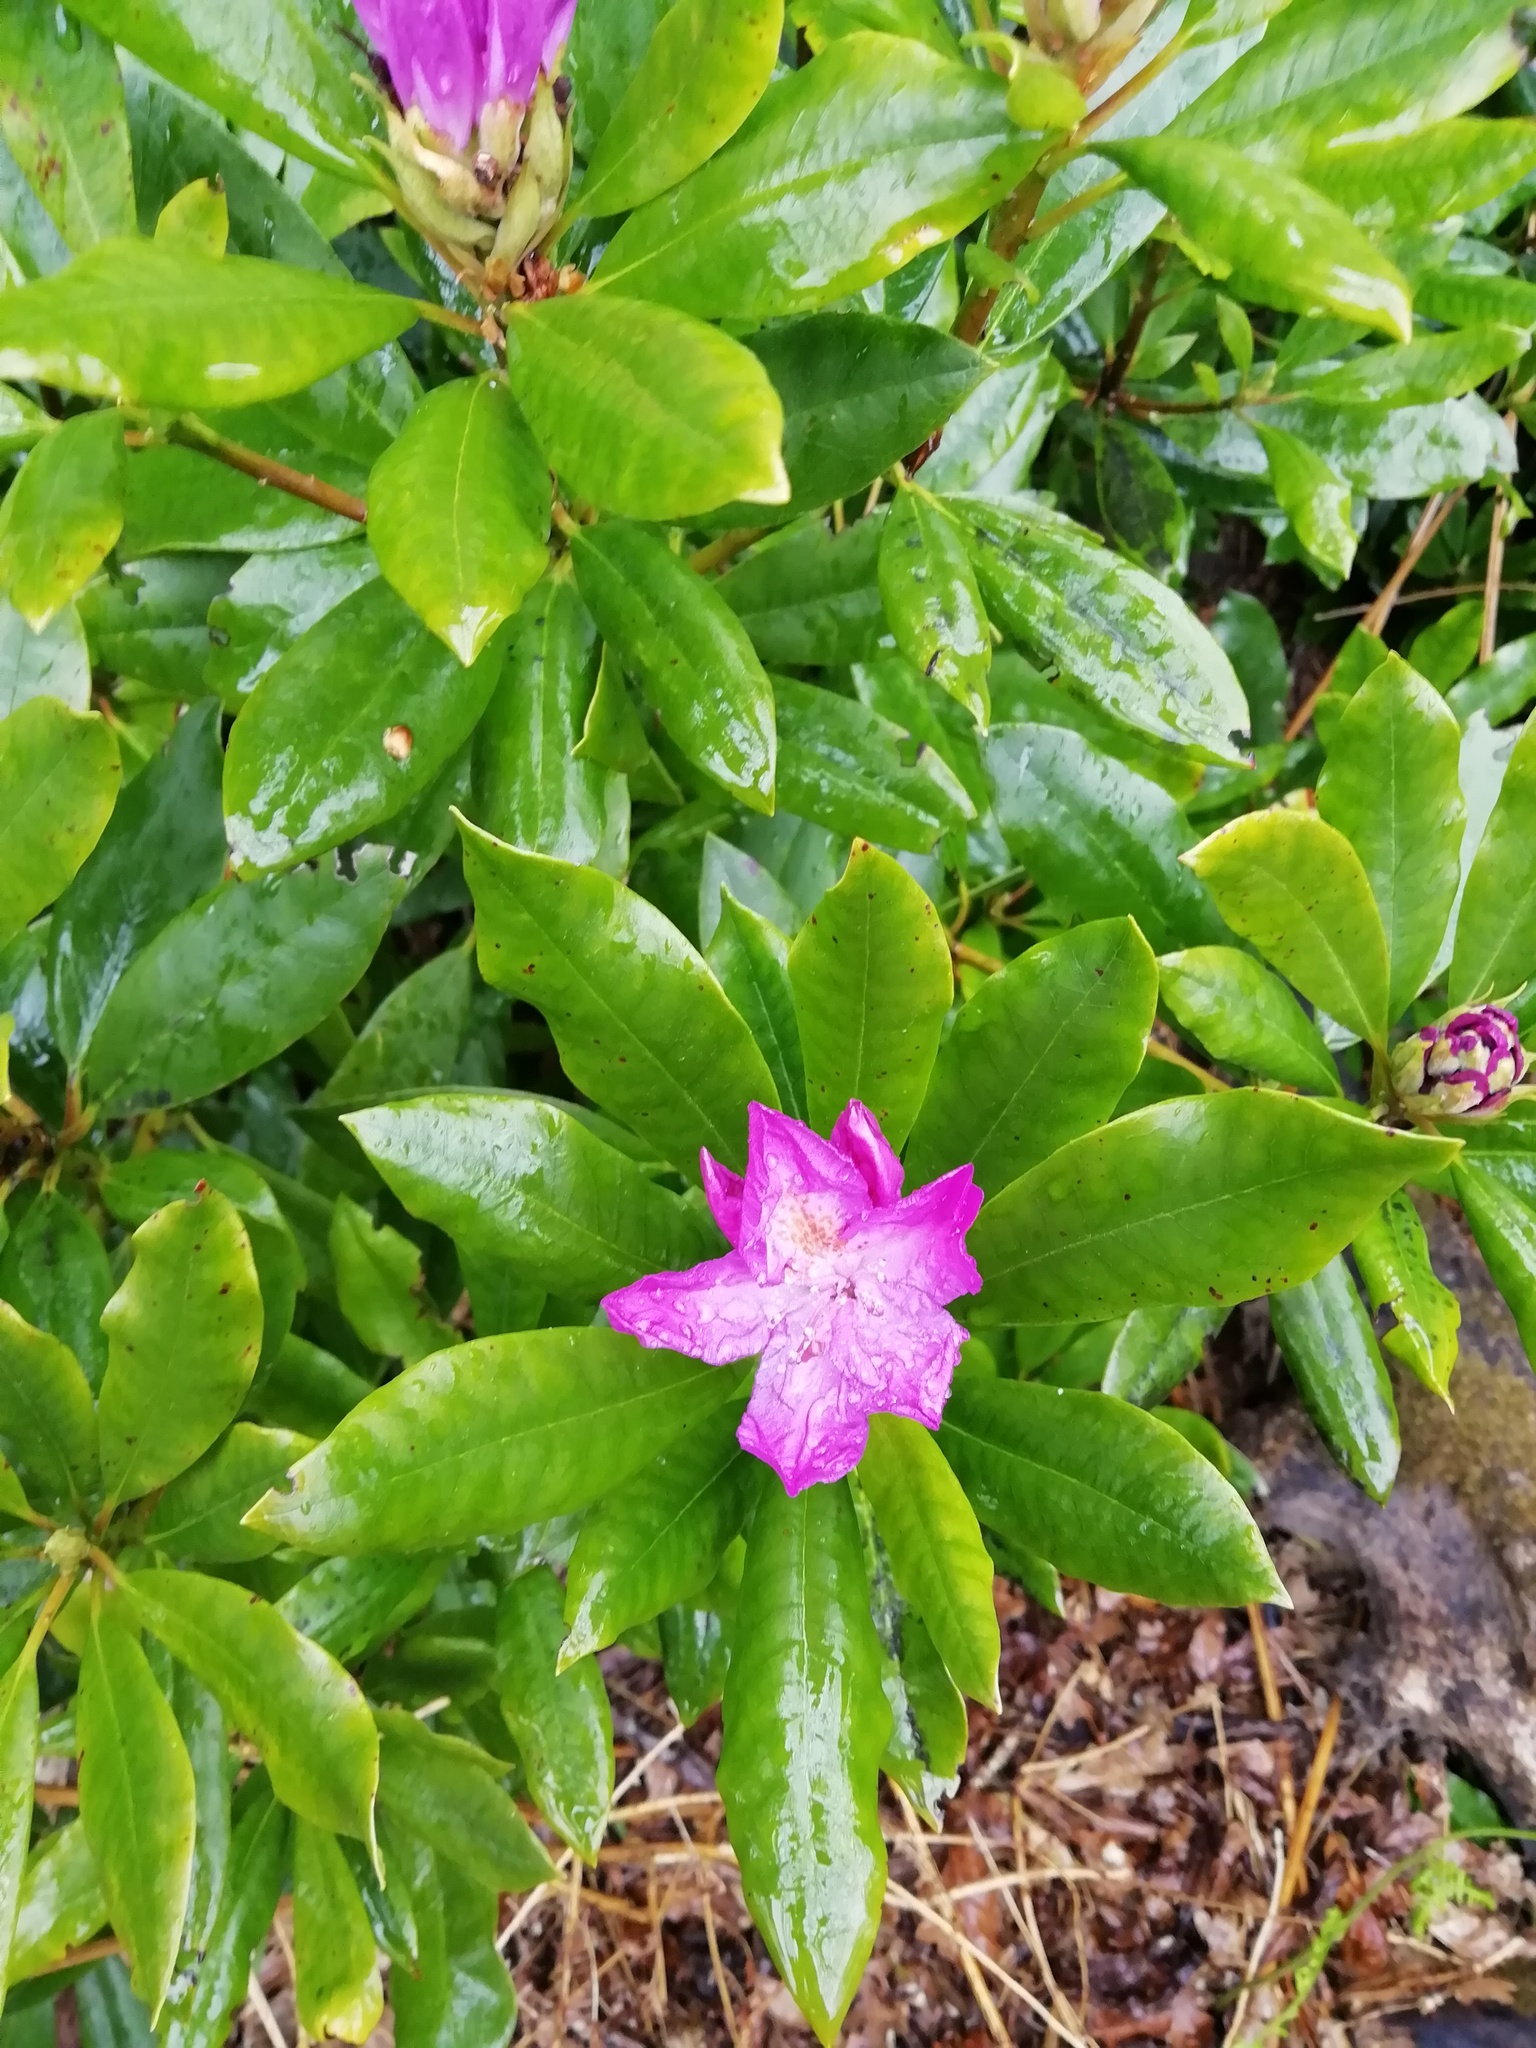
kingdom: Plantae
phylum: Tracheophyta
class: Magnoliopsida
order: Ericales
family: Ericaceae
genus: Rhododendron
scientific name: Rhododendron ponticum
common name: Rhododendron
